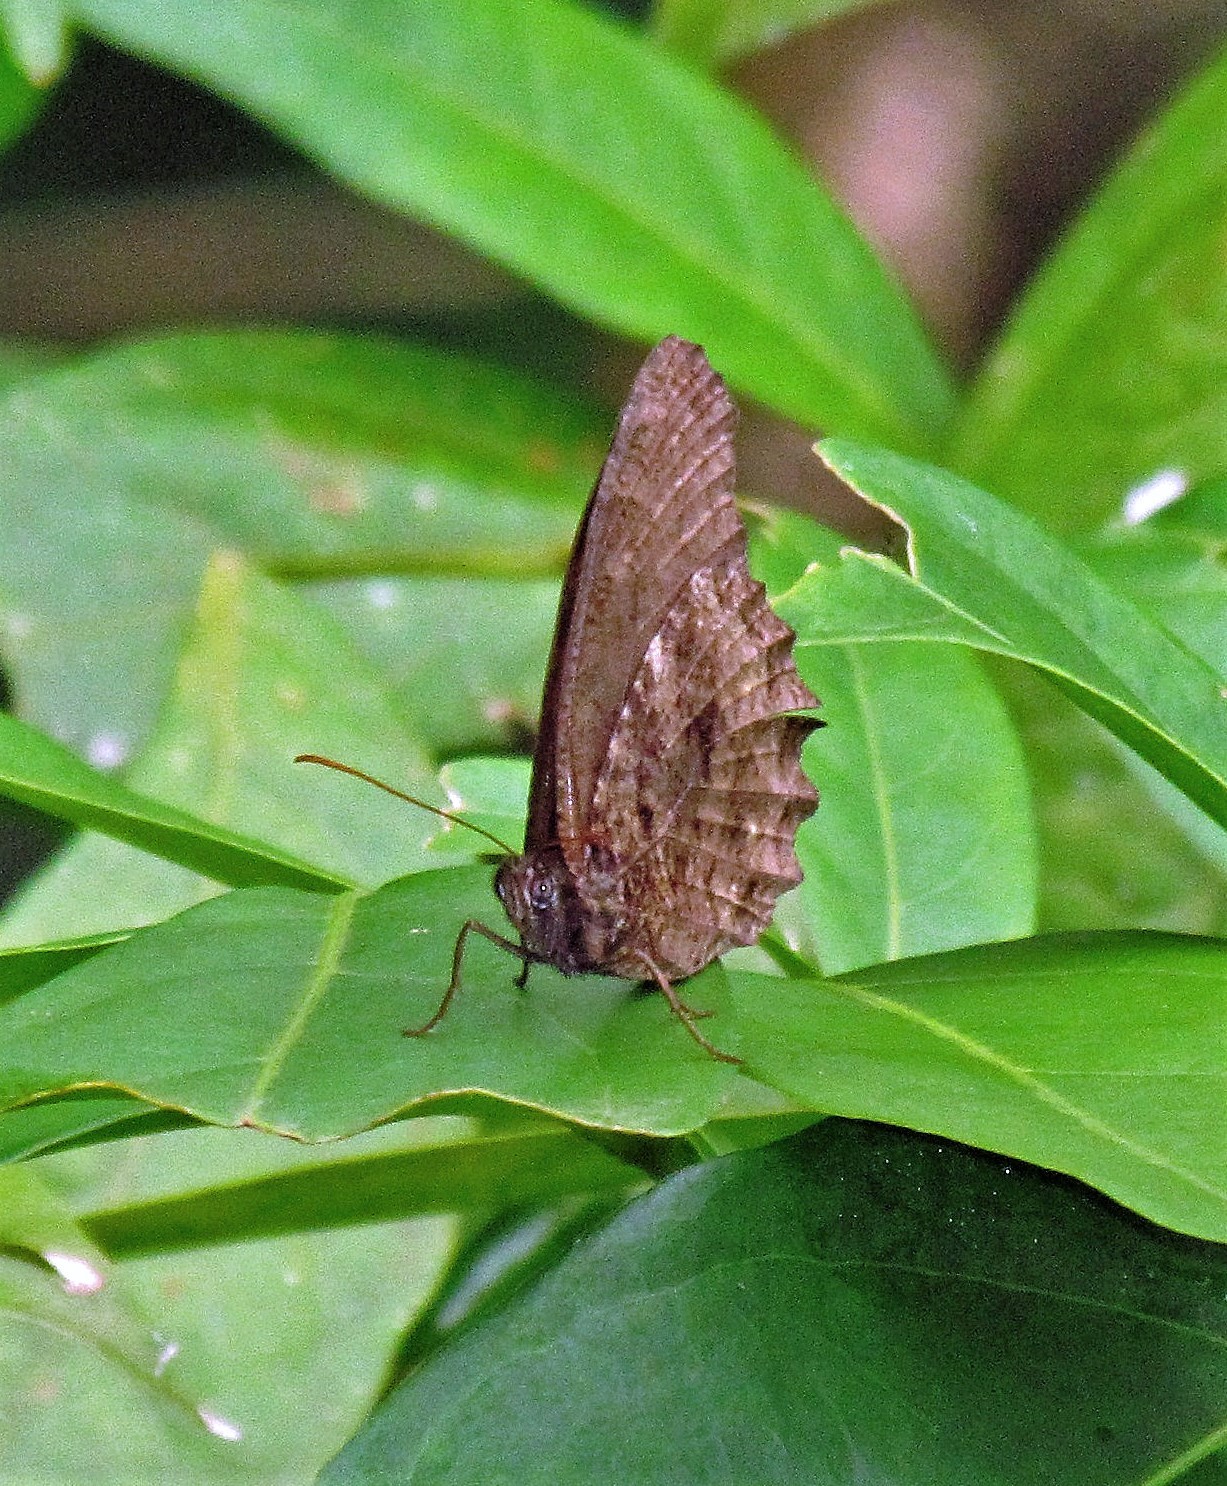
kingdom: Animalia
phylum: Arthropoda
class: Insecta
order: Lepidoptera
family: Nymphalidae
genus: Praepedaliodes
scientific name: Praepedaliodes phanias
